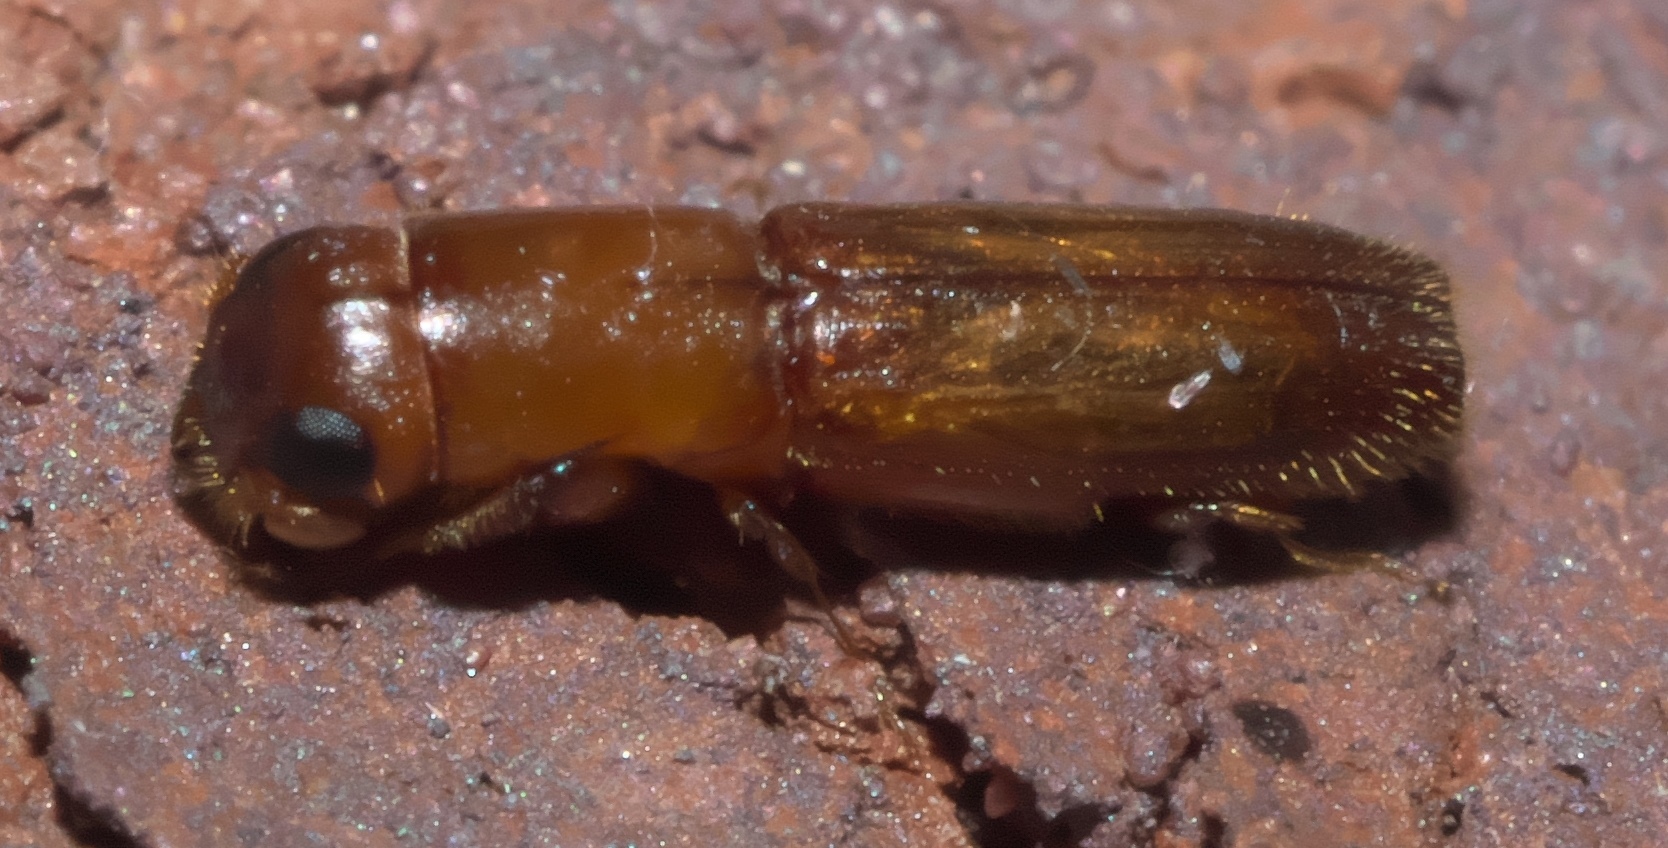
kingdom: Animalia
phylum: Arthropoda
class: Insecta
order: Coleoptera
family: Curculionidae
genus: Euplatypus
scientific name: Euplatypus compositus
